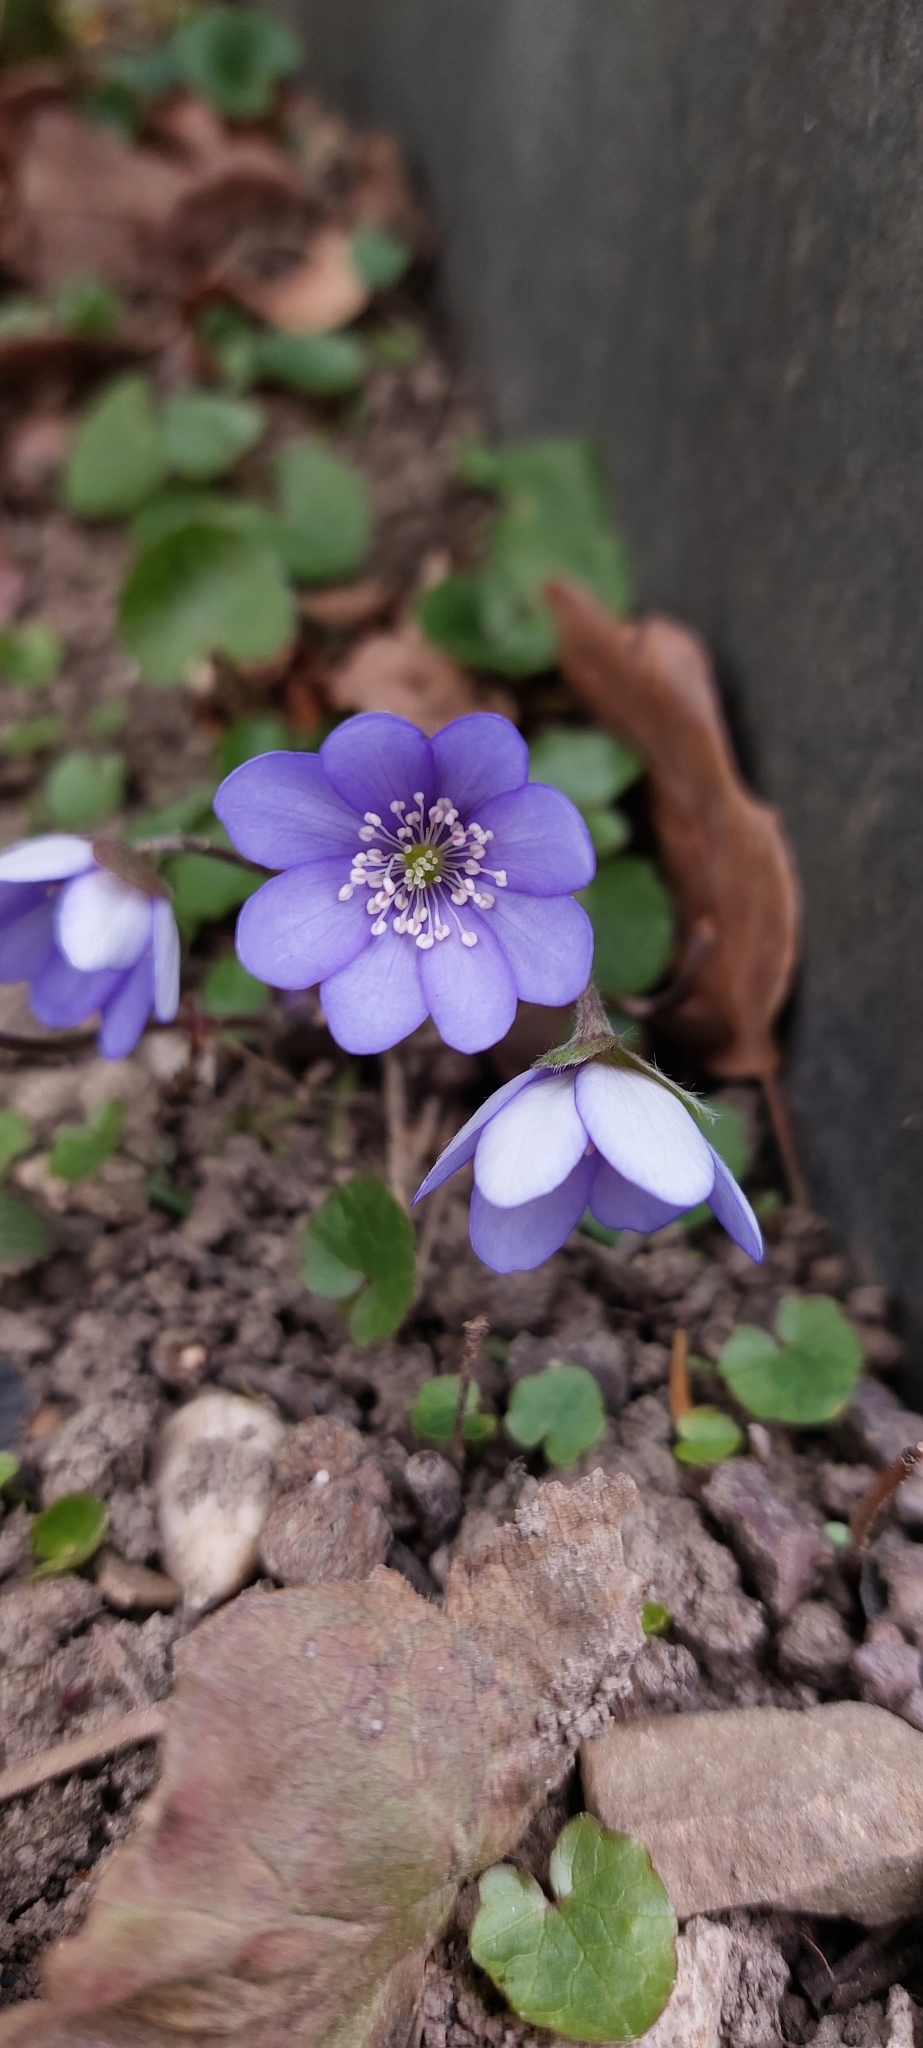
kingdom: Plantae
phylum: Tracheophyta
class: Magnoliopsida
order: Ranunculales
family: Ranunculaceae
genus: Hepatica
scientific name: Hepatica nobilis
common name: Liverleaf
